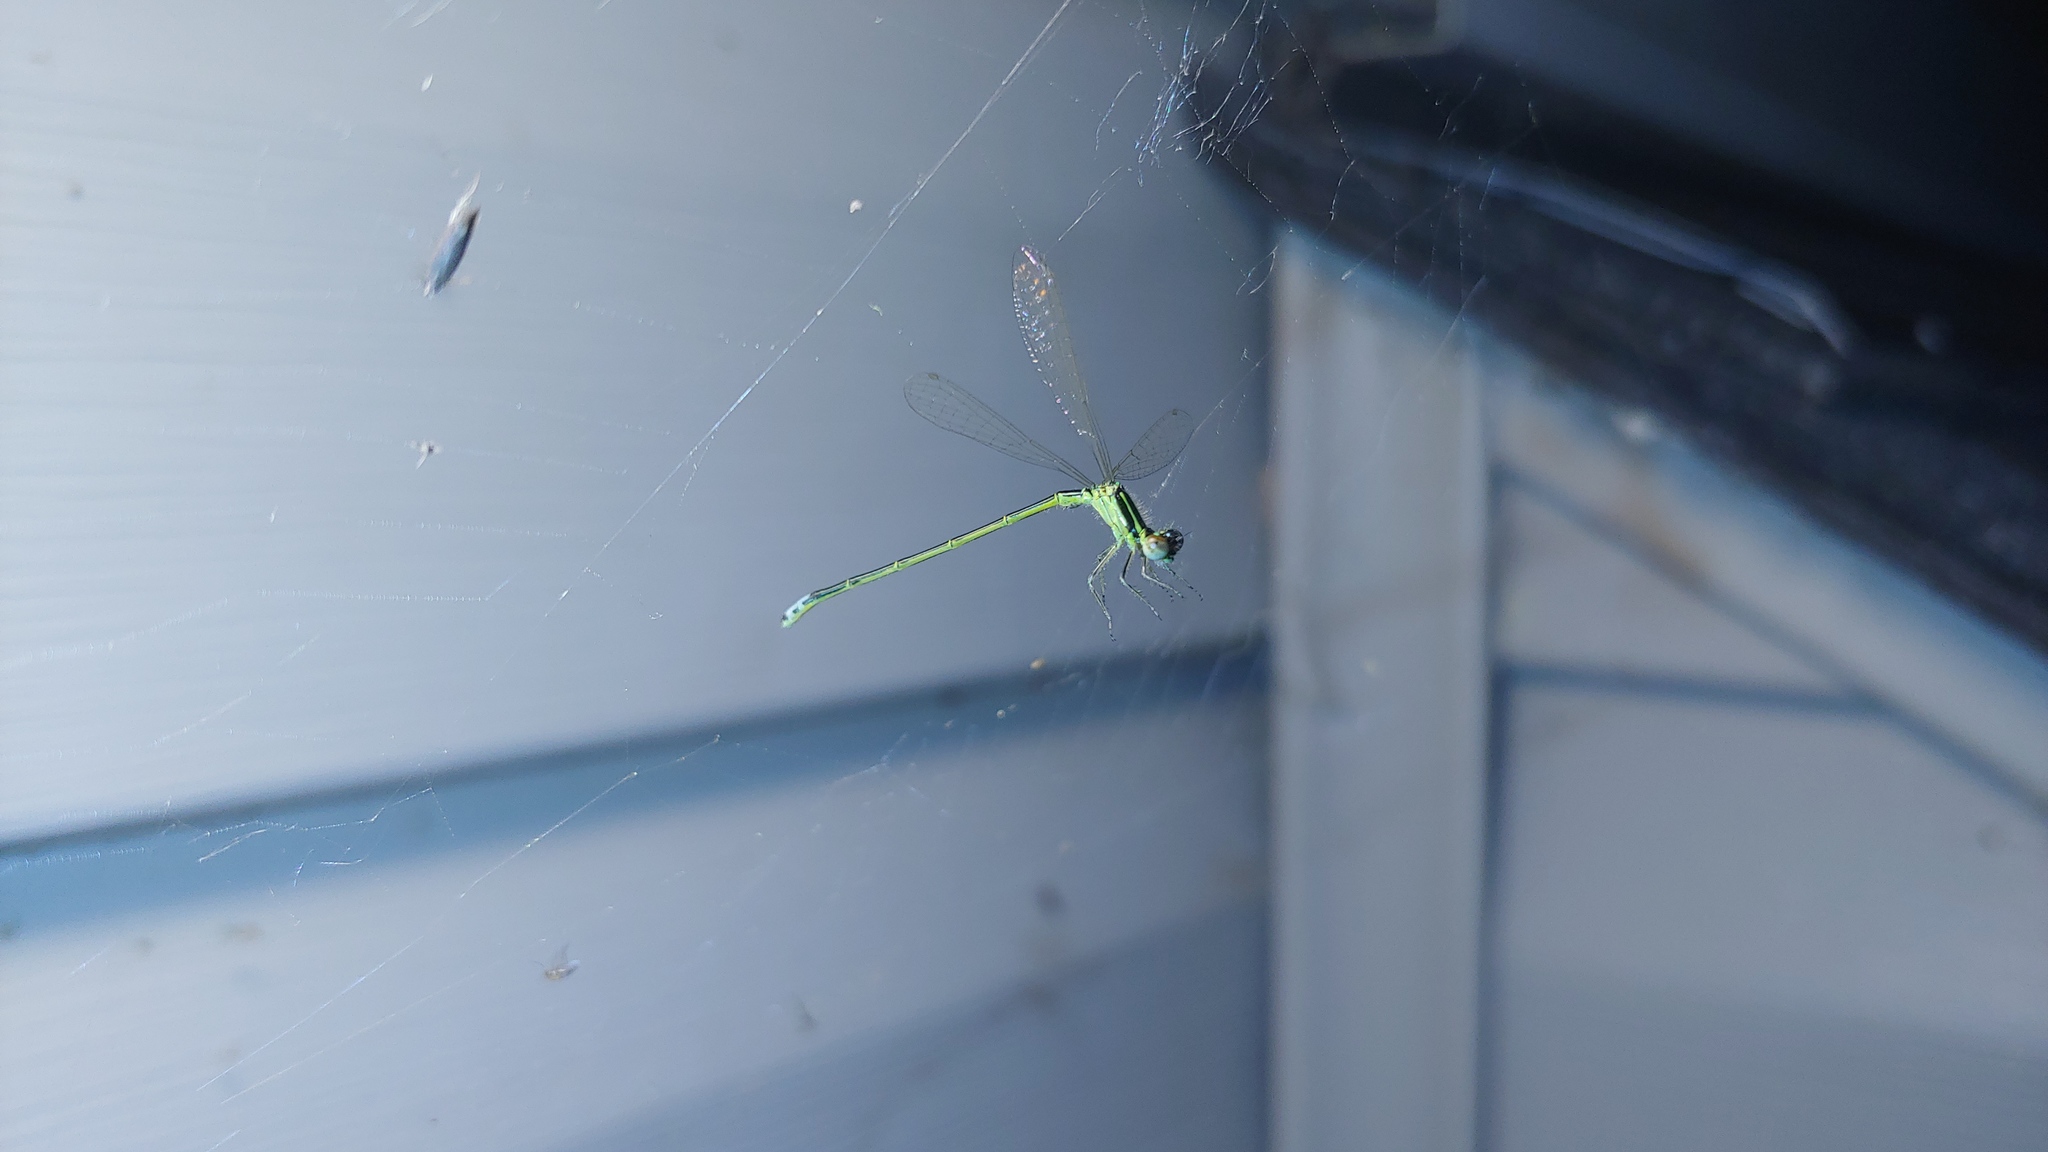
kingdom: Animalia
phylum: Arthropoda
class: Insecta
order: Odonata
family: Coenagrionidae
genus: Ischnura
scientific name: Ischnura verticalis
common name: Eastern forktail
